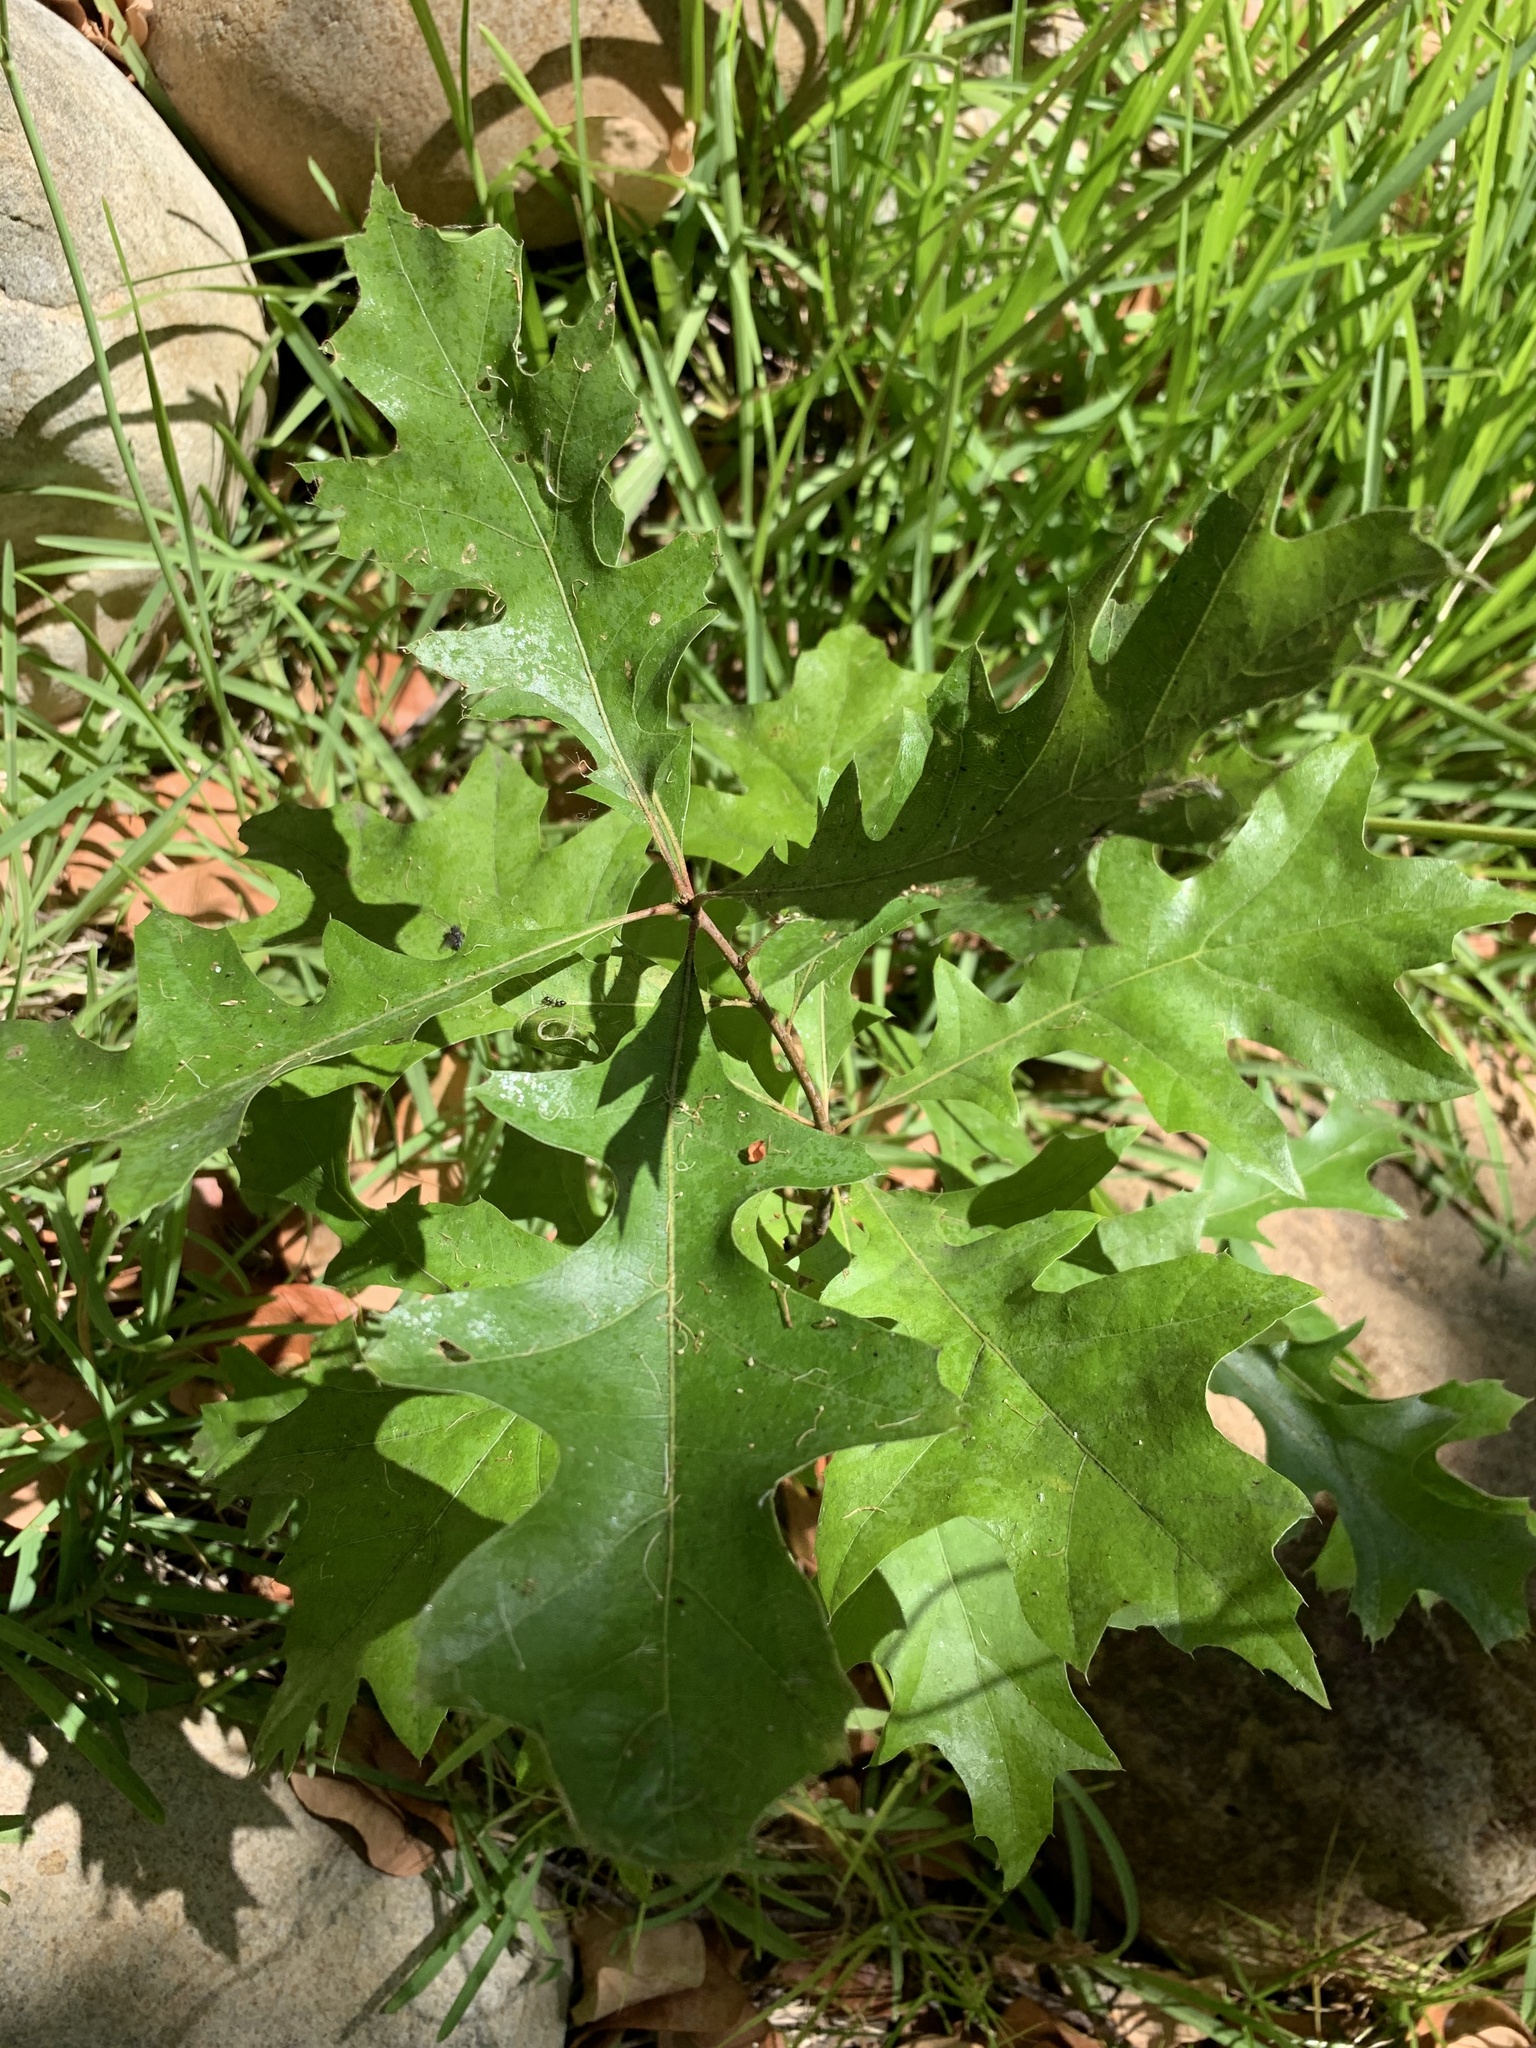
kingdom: Plantae
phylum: Tracheophyta
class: Magnoliopsida
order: Fagales
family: Fagaceae
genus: Quercus
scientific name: Quercus palustris
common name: Pin oak
